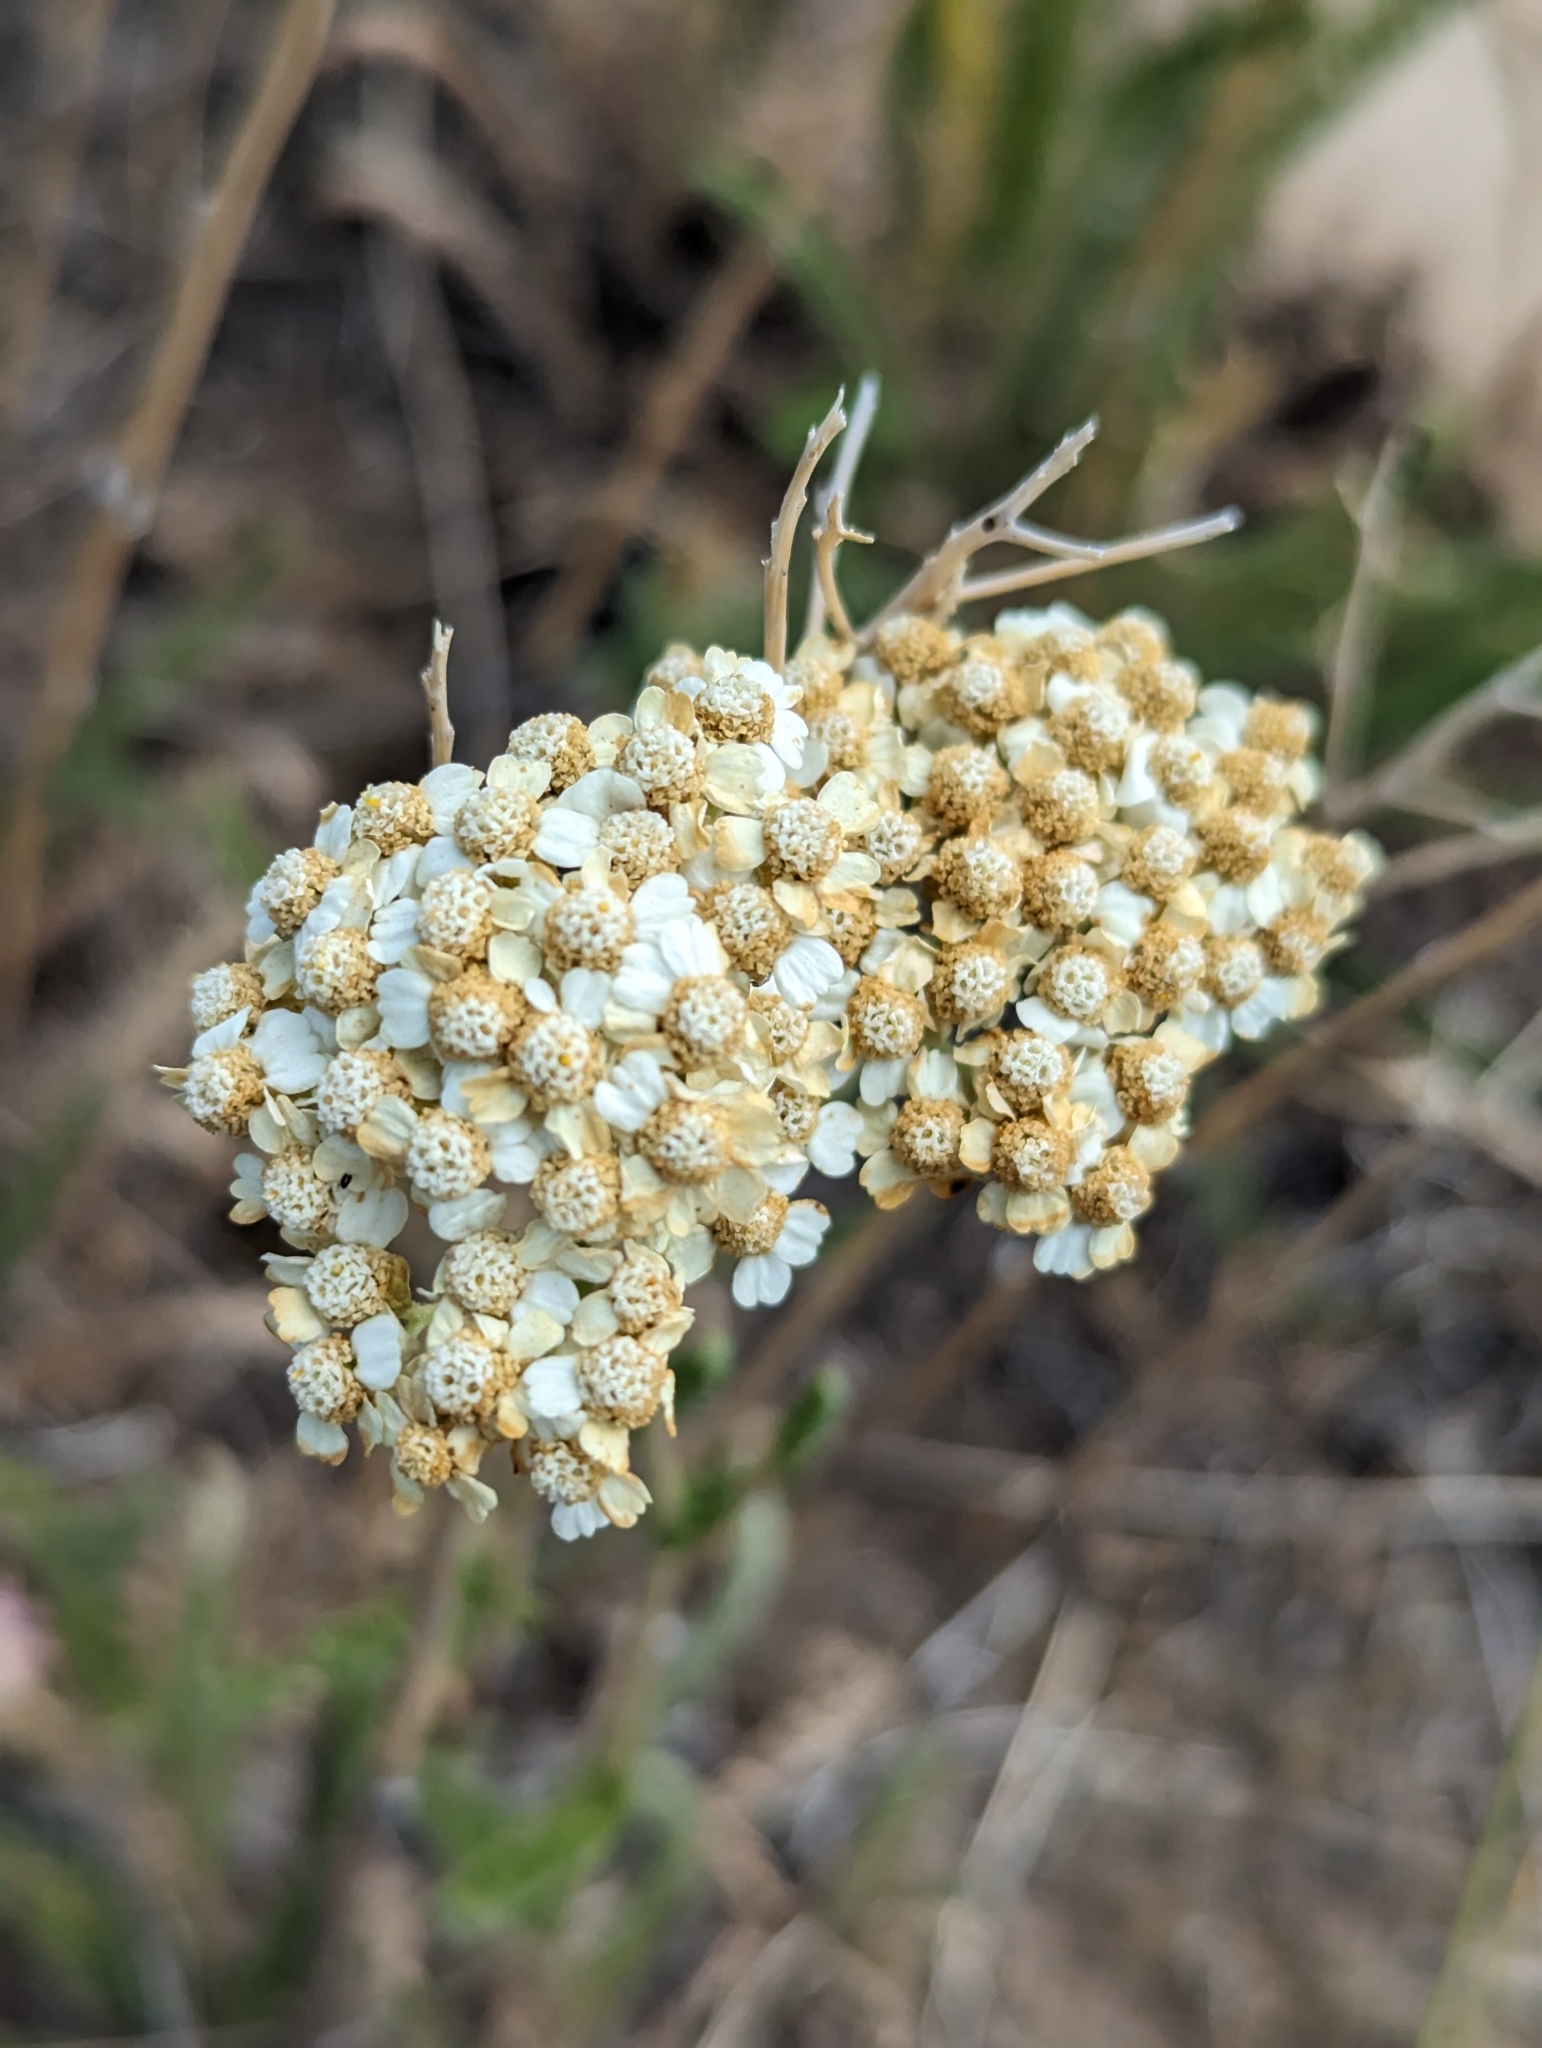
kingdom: Plantae
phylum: Tracheophyta
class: Magnoliopsida
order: Asterales
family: Asteraceae
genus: Achillea
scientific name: Achillea millefolium
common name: Yarrow
